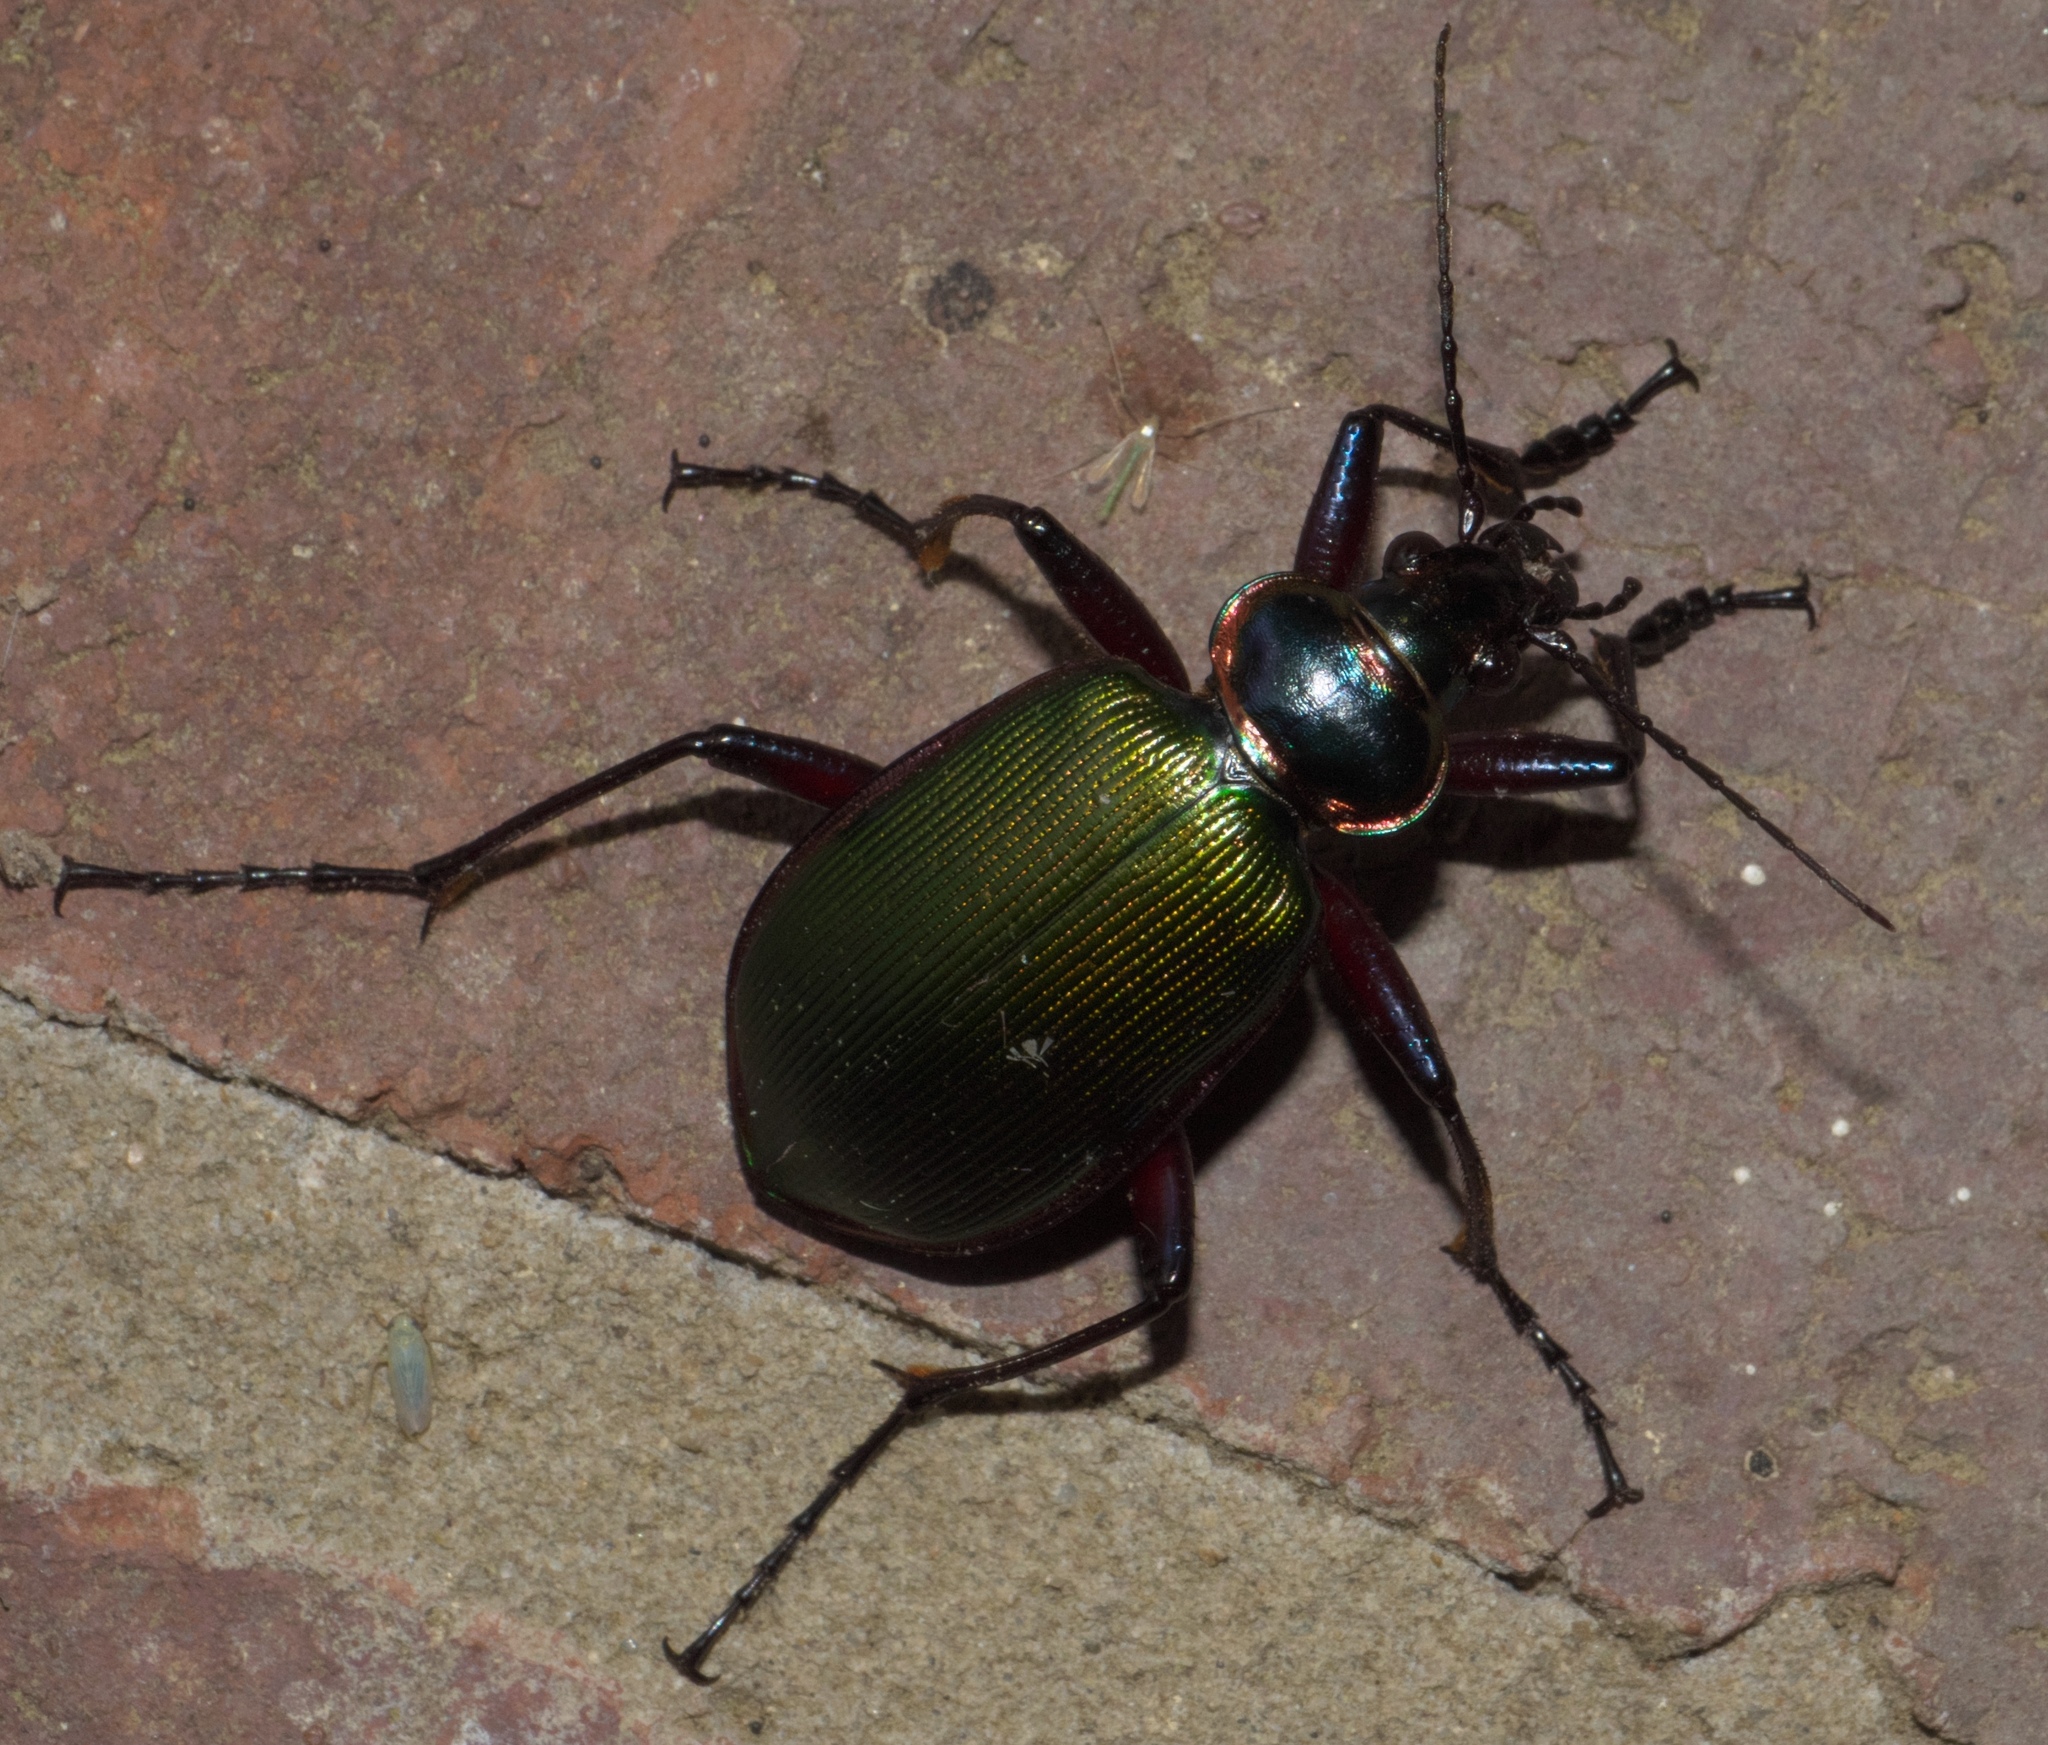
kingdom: Animalia
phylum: Arthropoda
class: Insecta
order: Coleoptera
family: Carabidae
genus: Calosoma
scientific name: Calosoma scrutator
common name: Fiery searcher beetle
